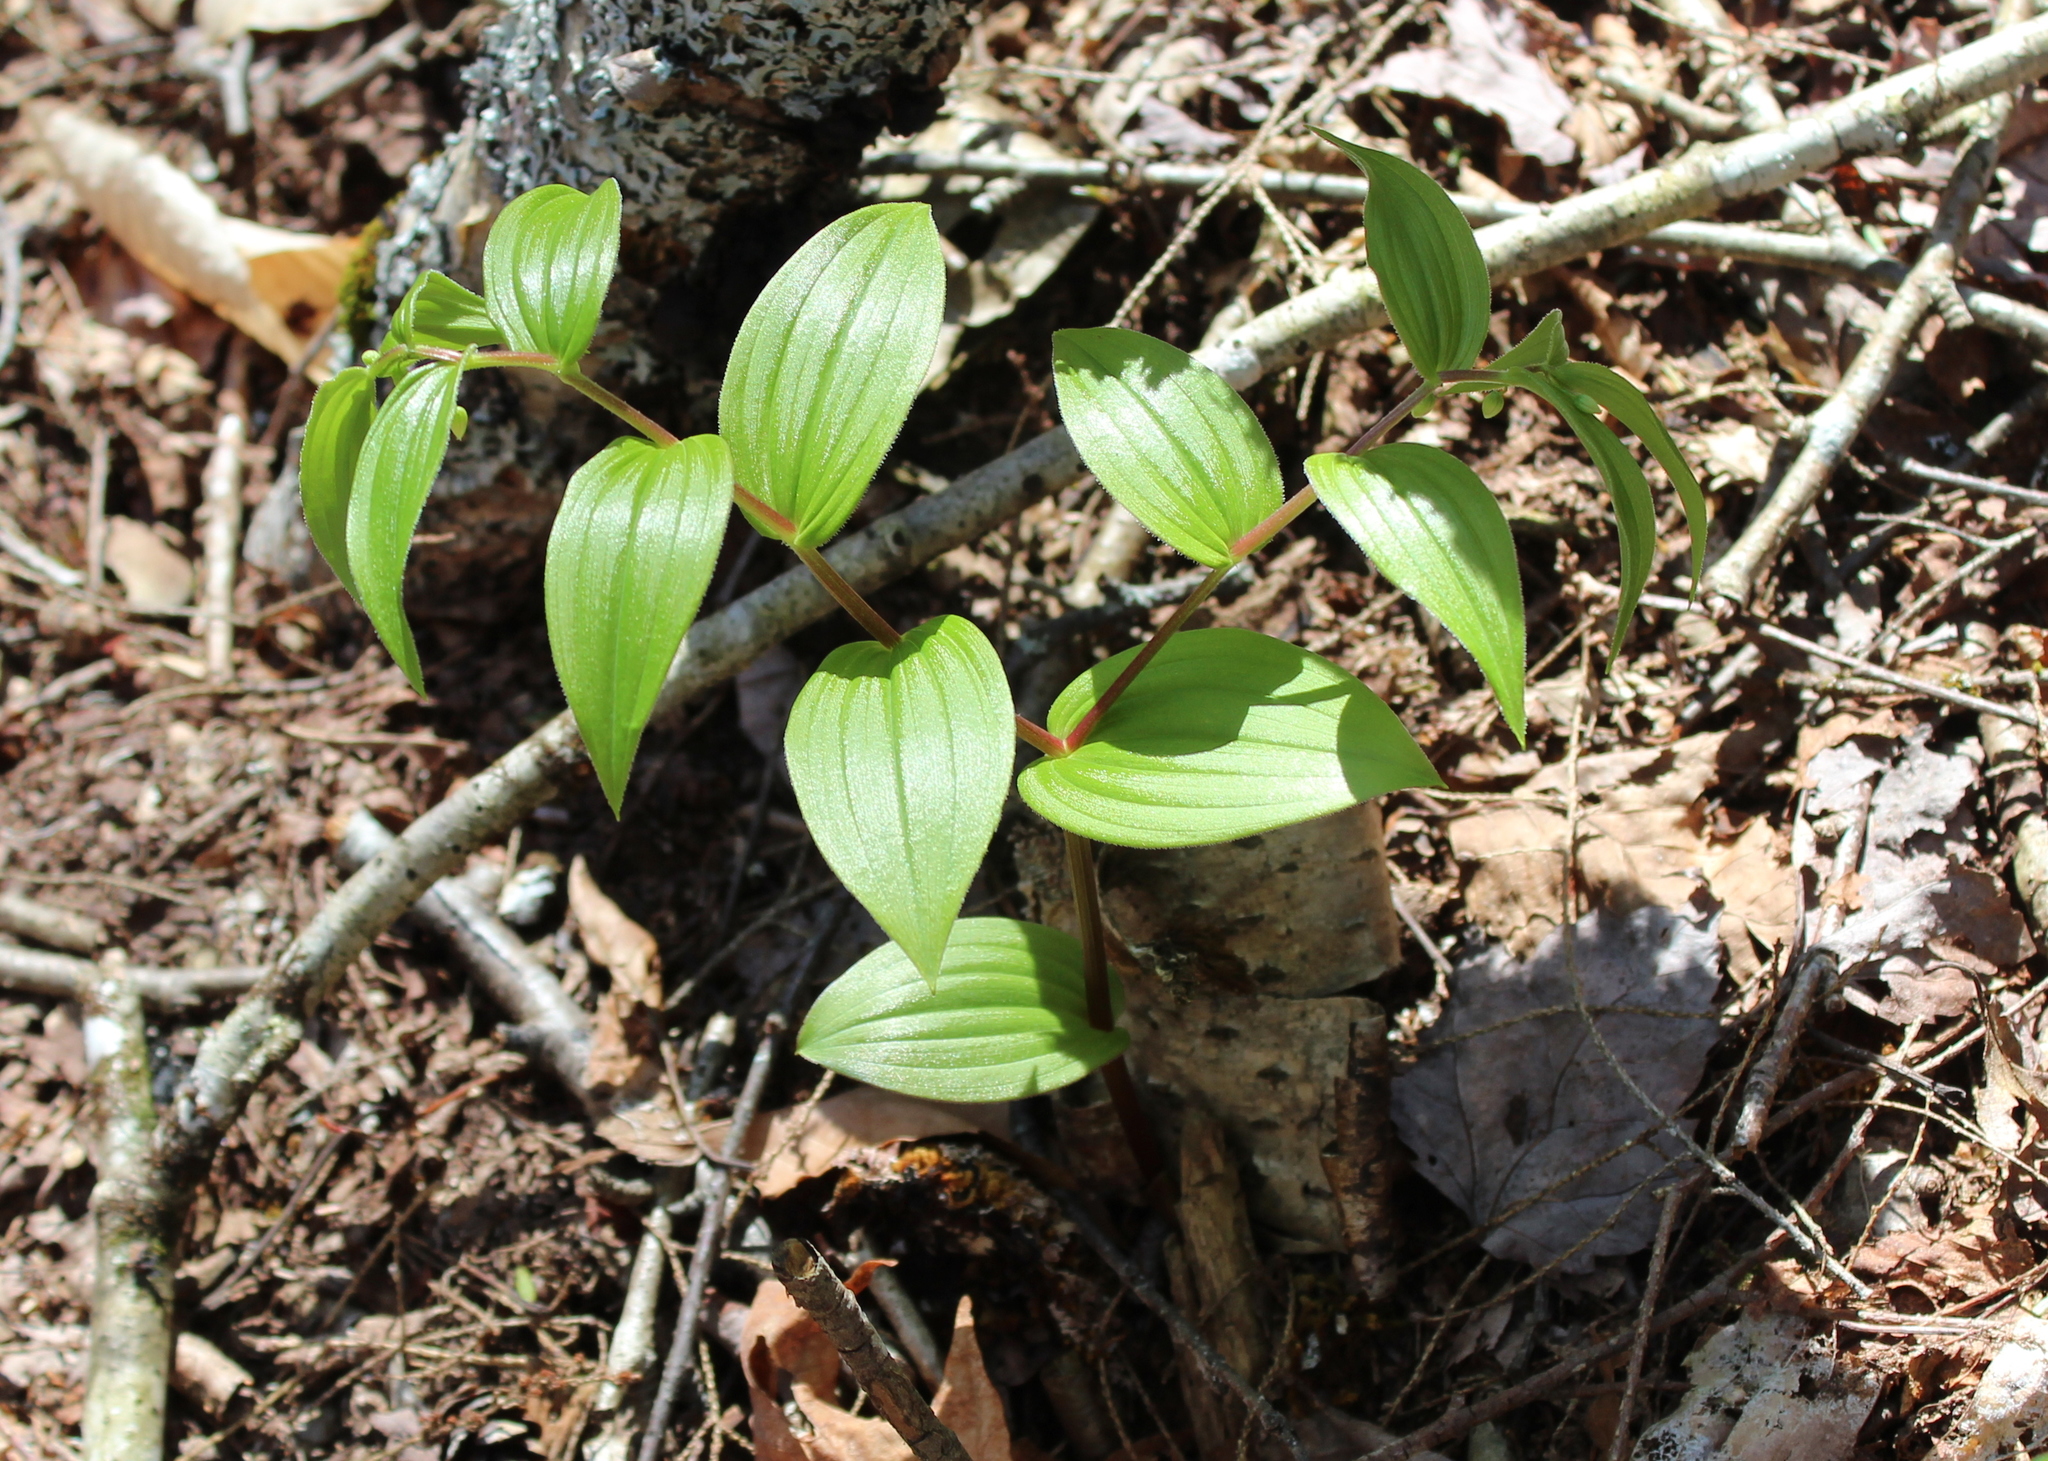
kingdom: Plantae
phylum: Tracheophyta
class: Liliopsida
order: Liliales
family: Liliaceae
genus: Streptopus
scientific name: Streptopus lanceolatus
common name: Rose mandarin
